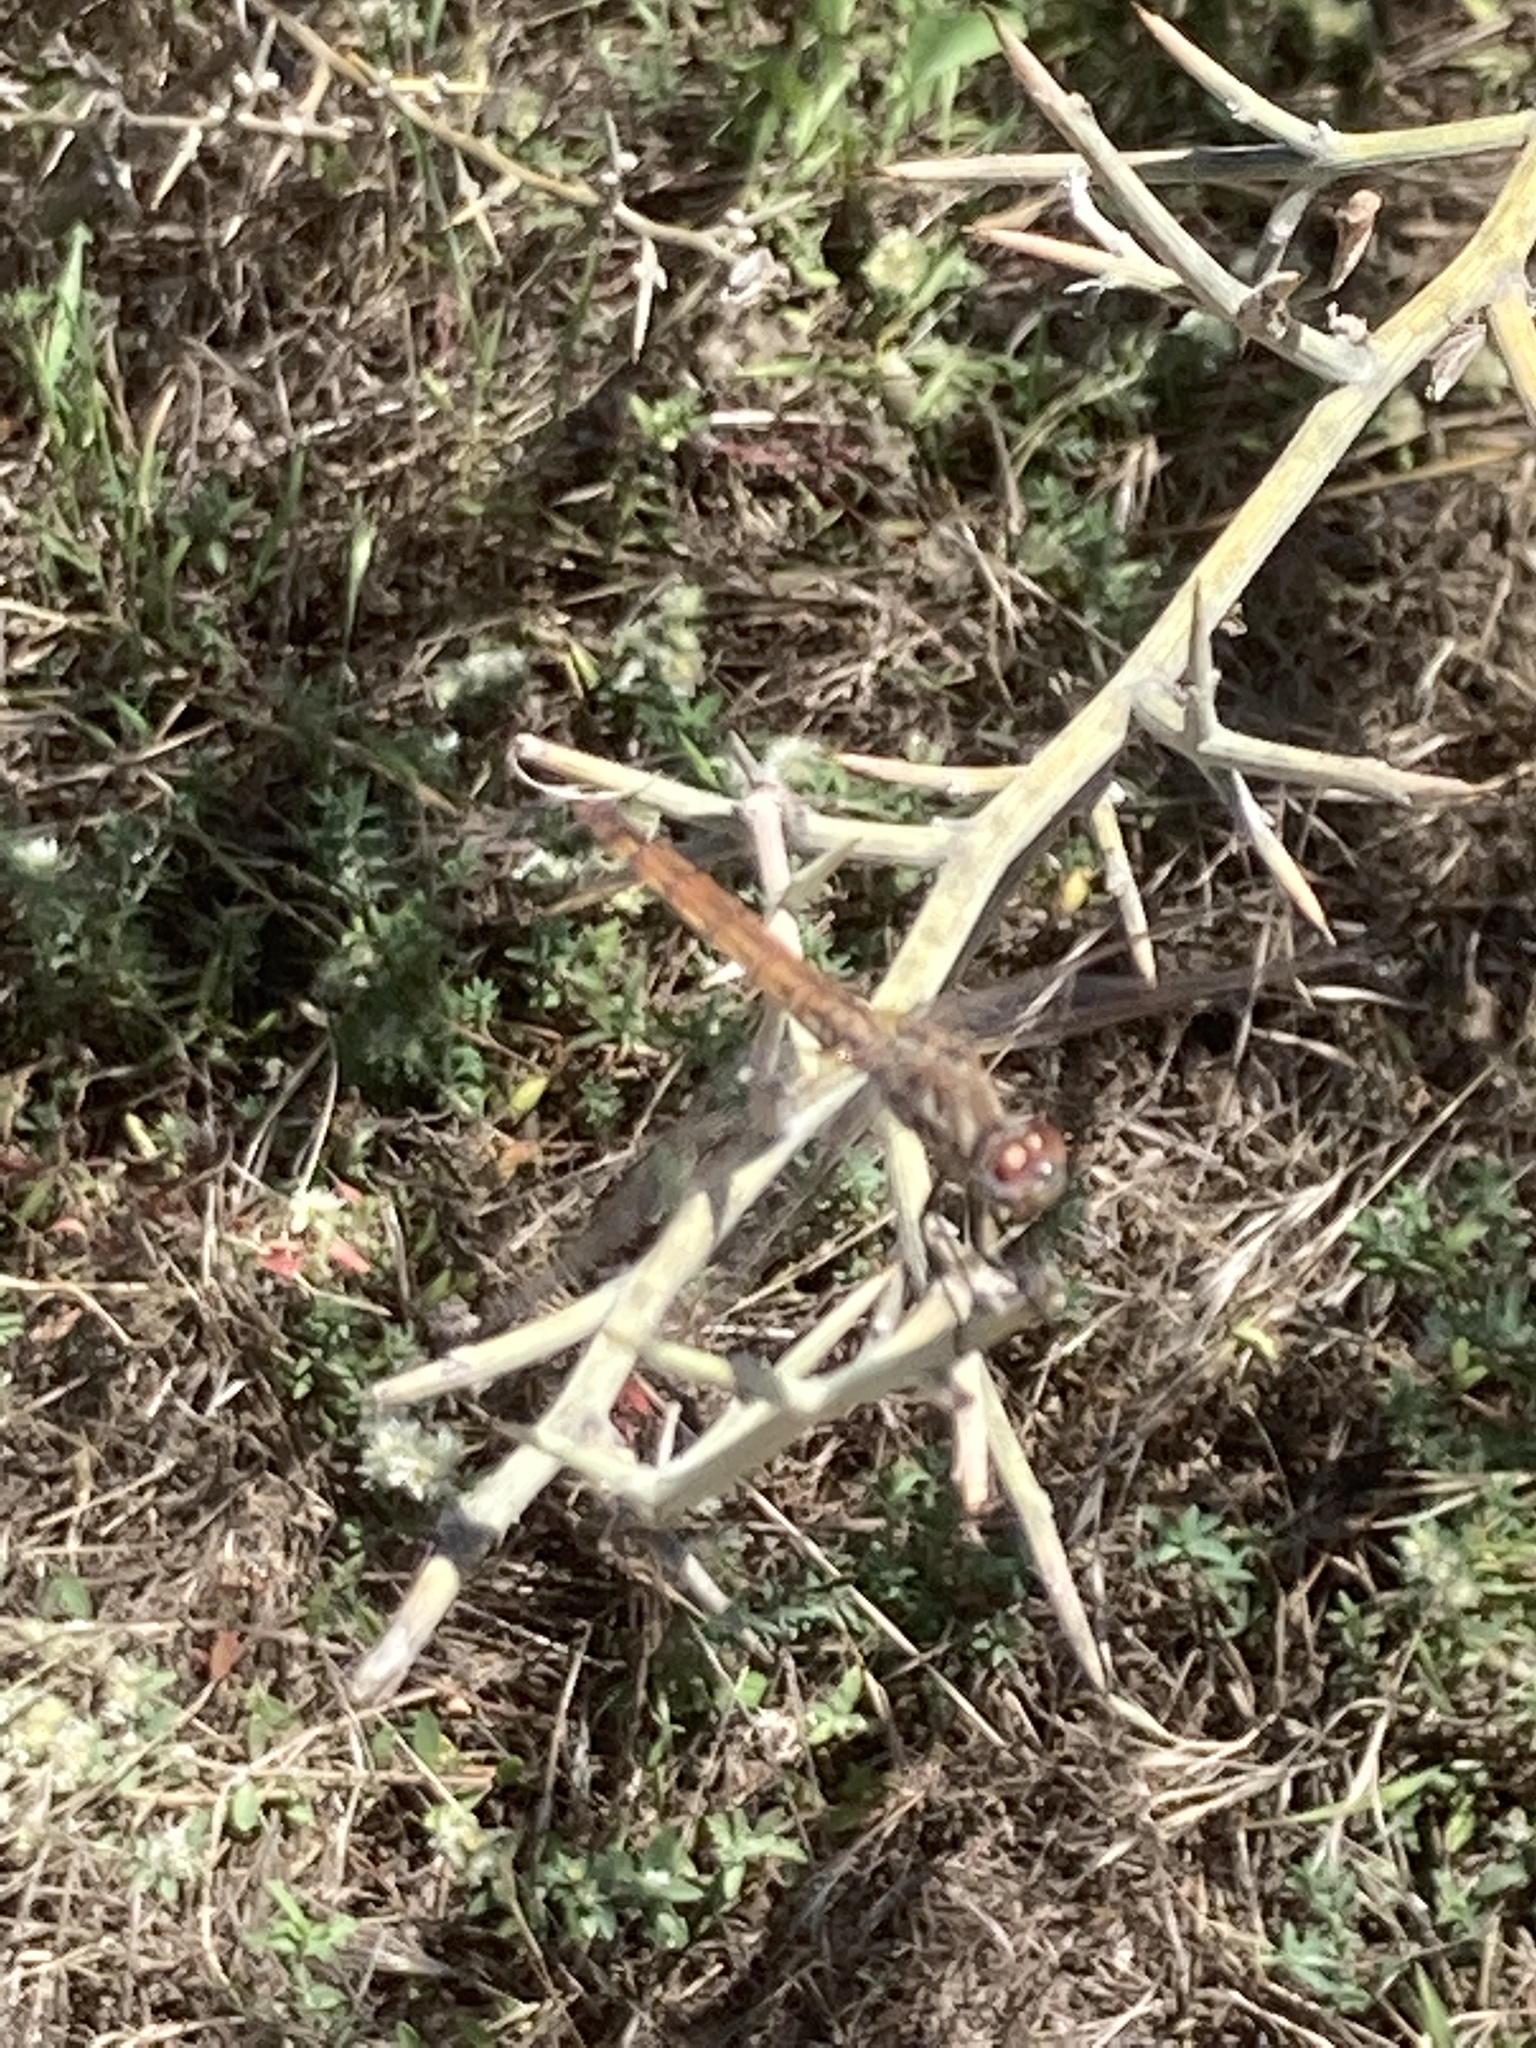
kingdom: Animalia
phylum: Arthropoda
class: Insecta
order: Odonata
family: Libellulidae
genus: Trithemis
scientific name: Trithemis annulata
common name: Violet dropwing
